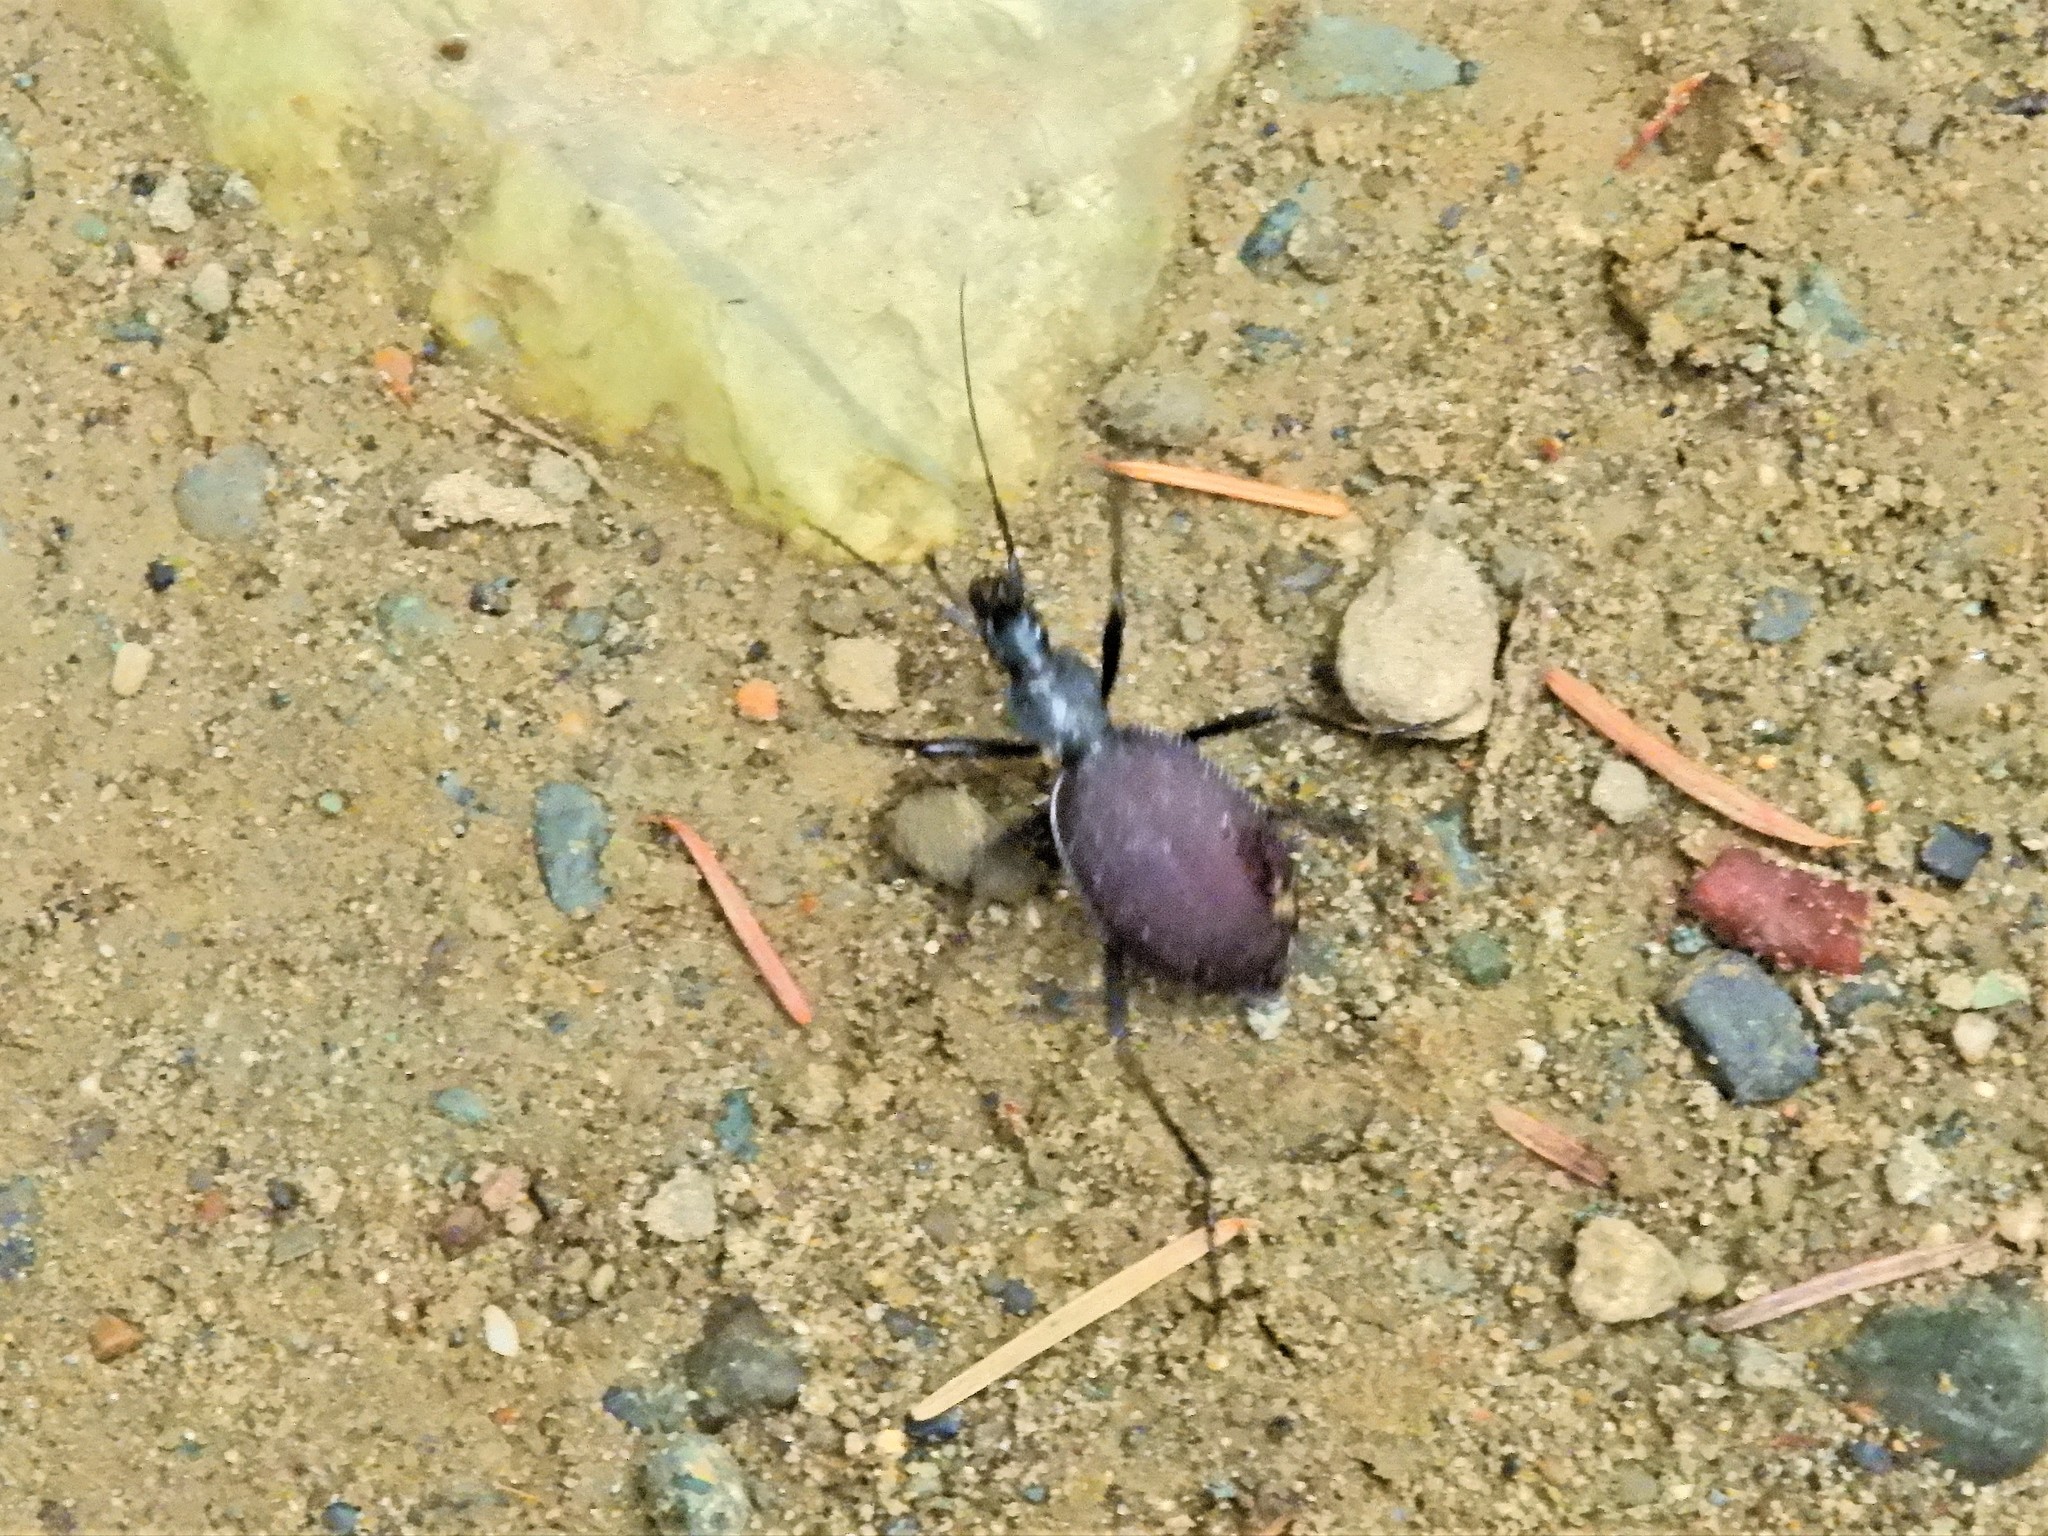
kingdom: Animalia
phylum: Arthropoda
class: Insecta
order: Coleoptera
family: Carabidae
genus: Scaphinotus
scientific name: Scaphinotus angusticollis
